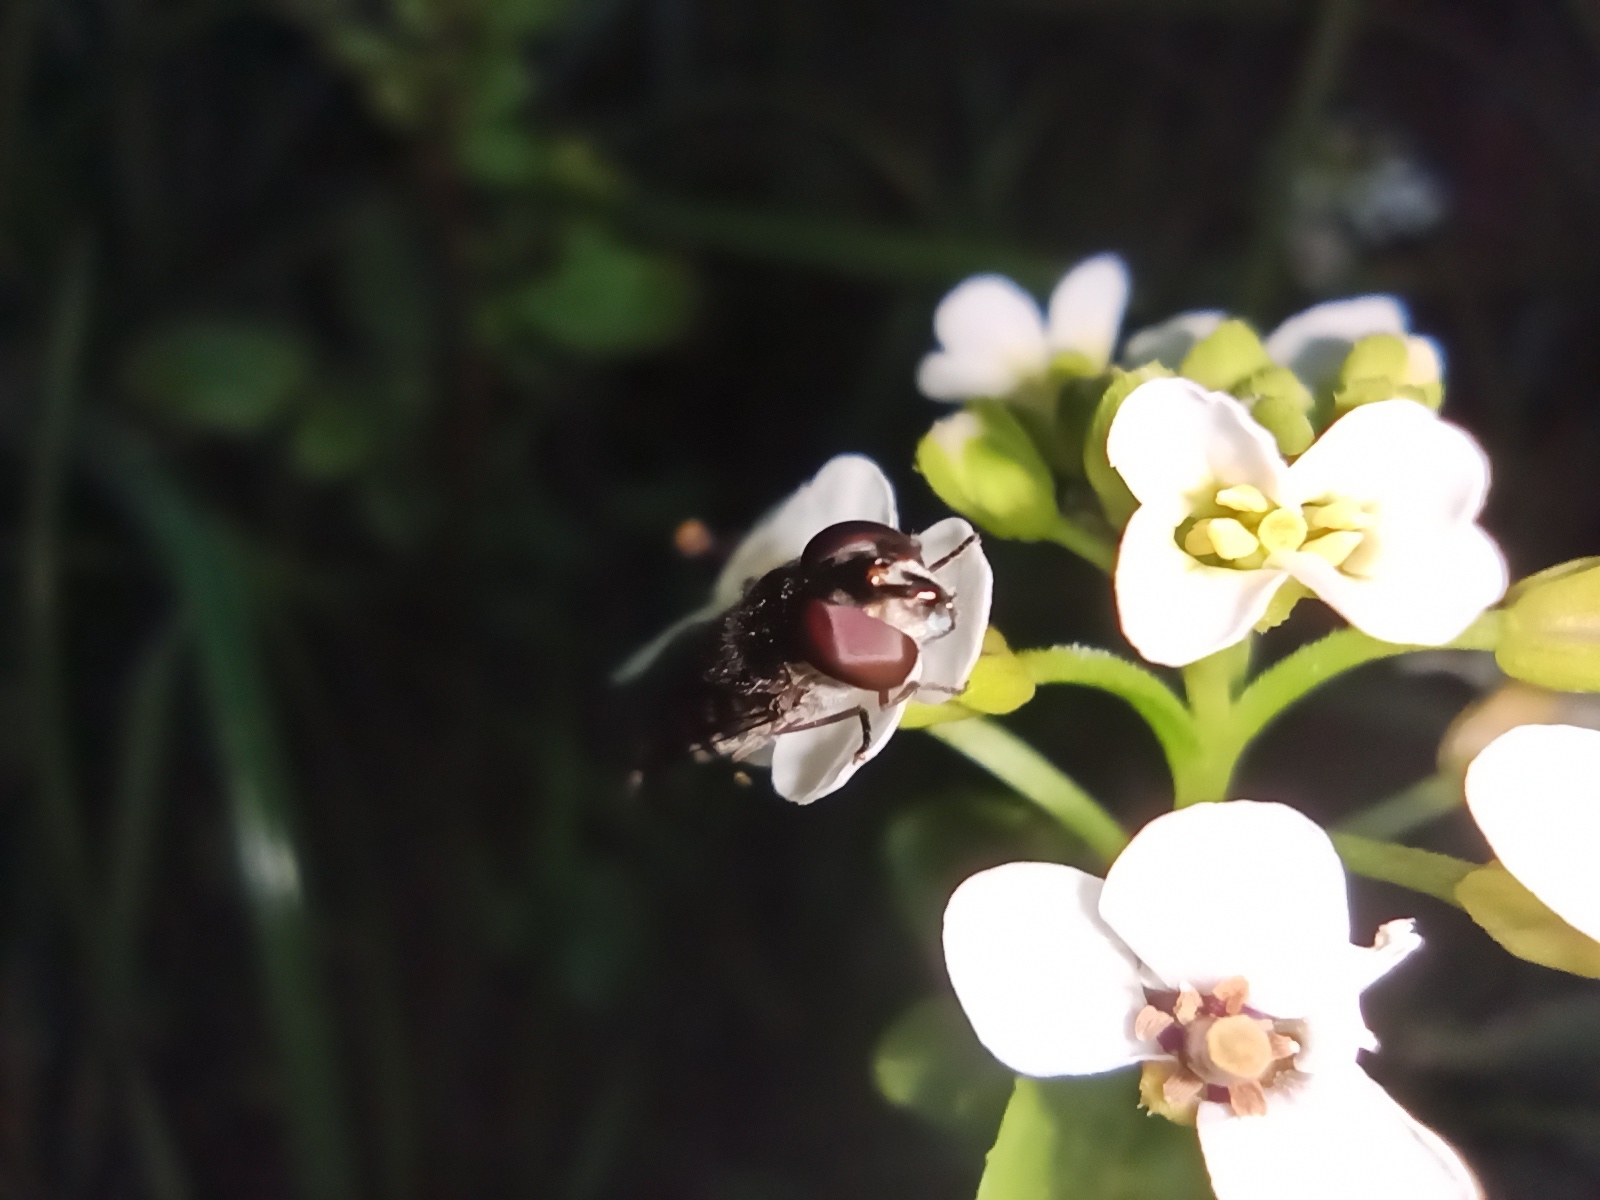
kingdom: Animalia
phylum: Arthropoda
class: Insecta
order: Diptera
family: Syrphidae
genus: Melangyna
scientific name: Melangyna novaezelandiae
